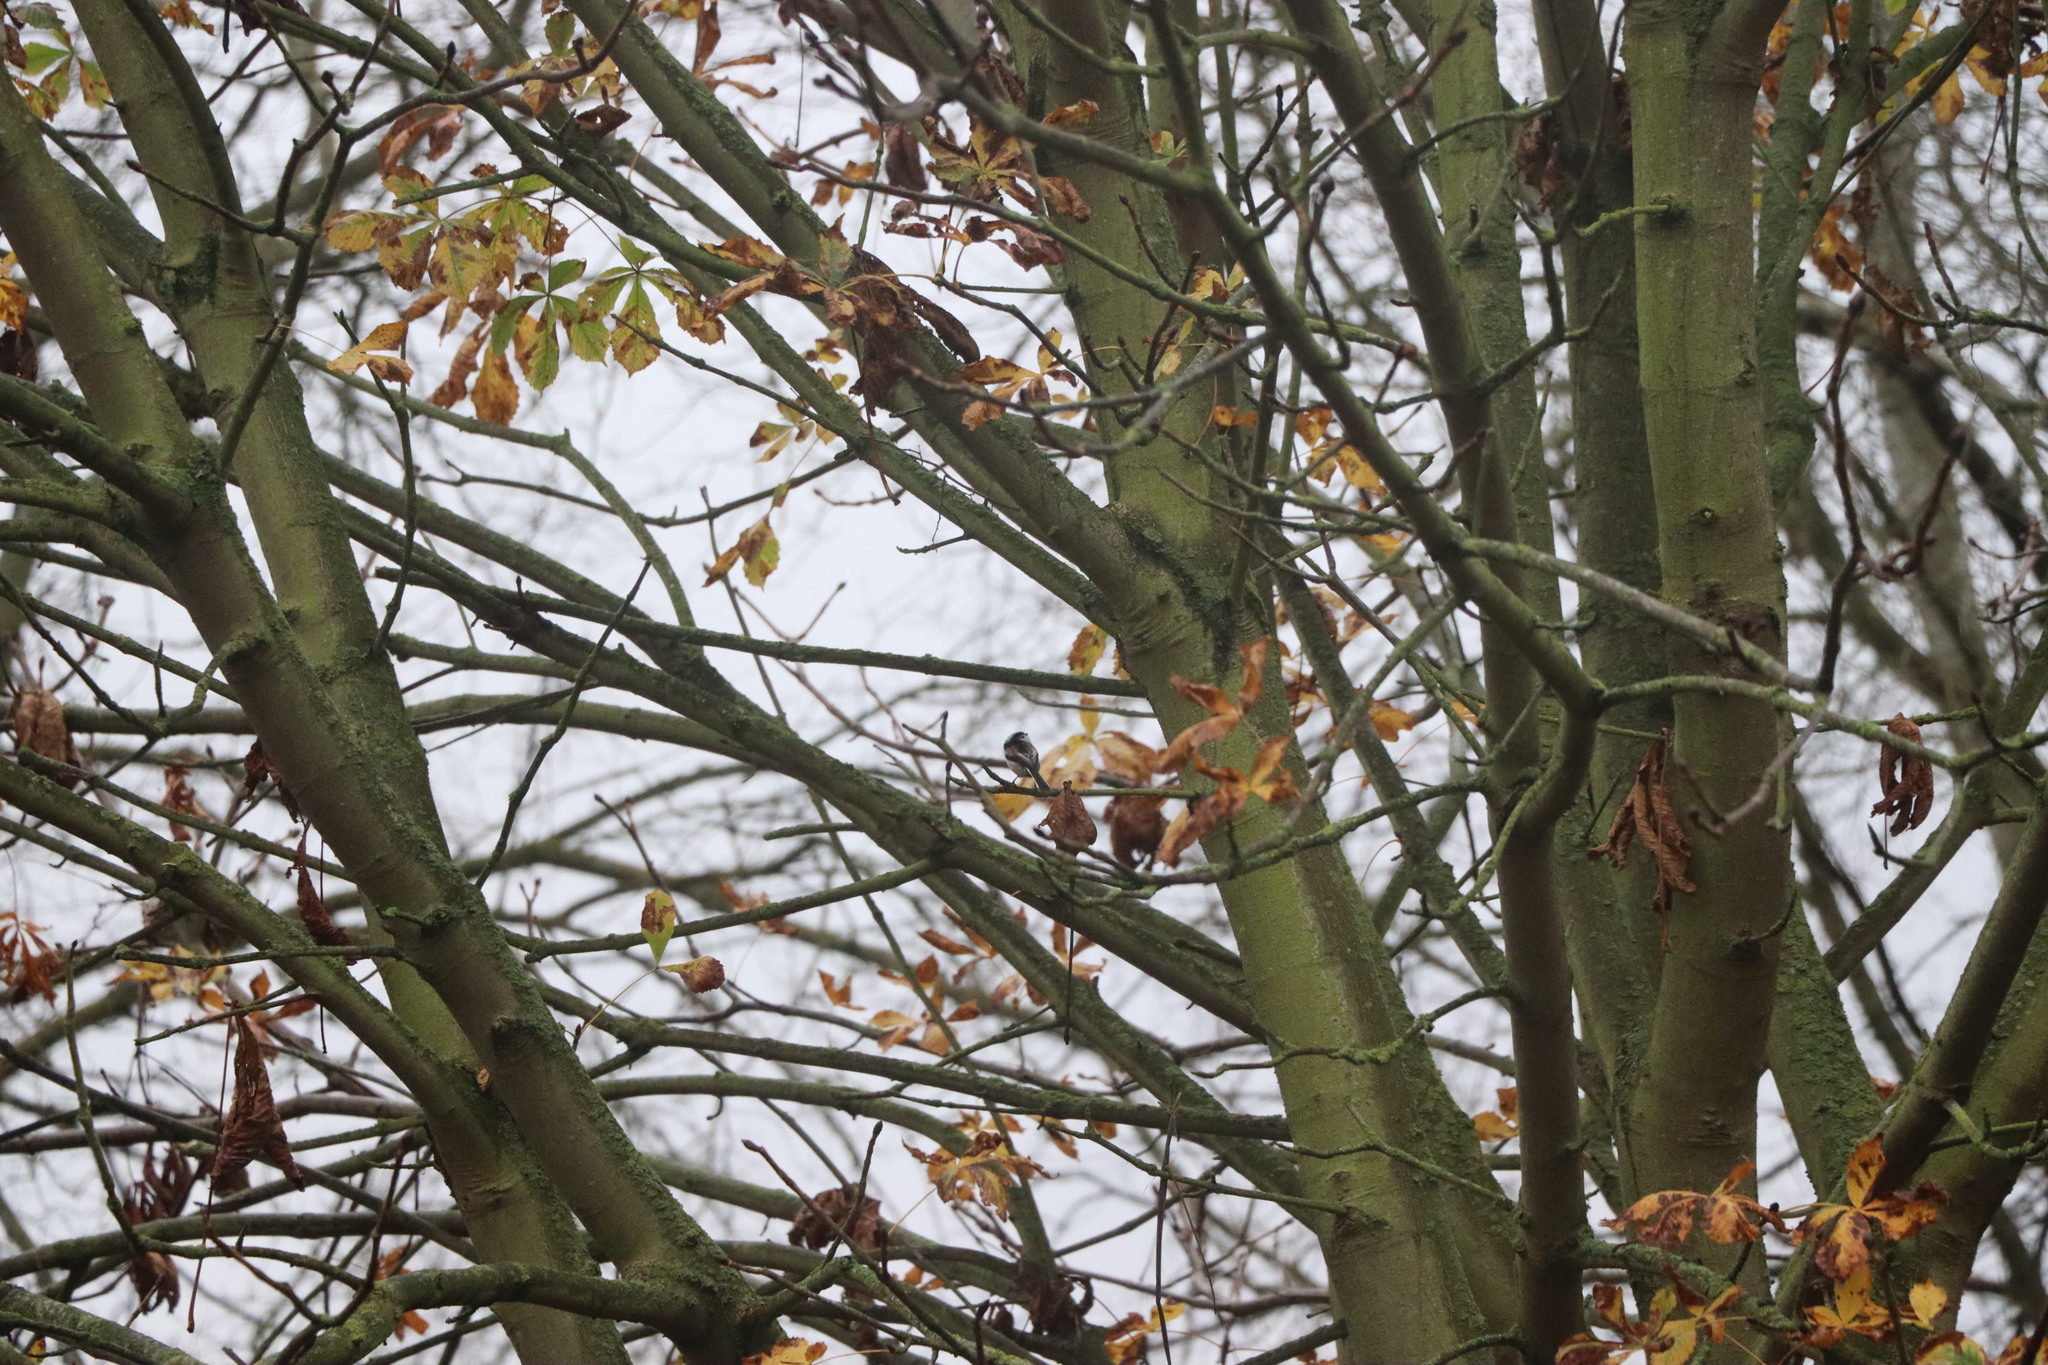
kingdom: Animalia
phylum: Chordata
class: Aves
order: Passeriformes
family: Aegithalidae
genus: Aegithalos
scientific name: Aegithalos caudatus
